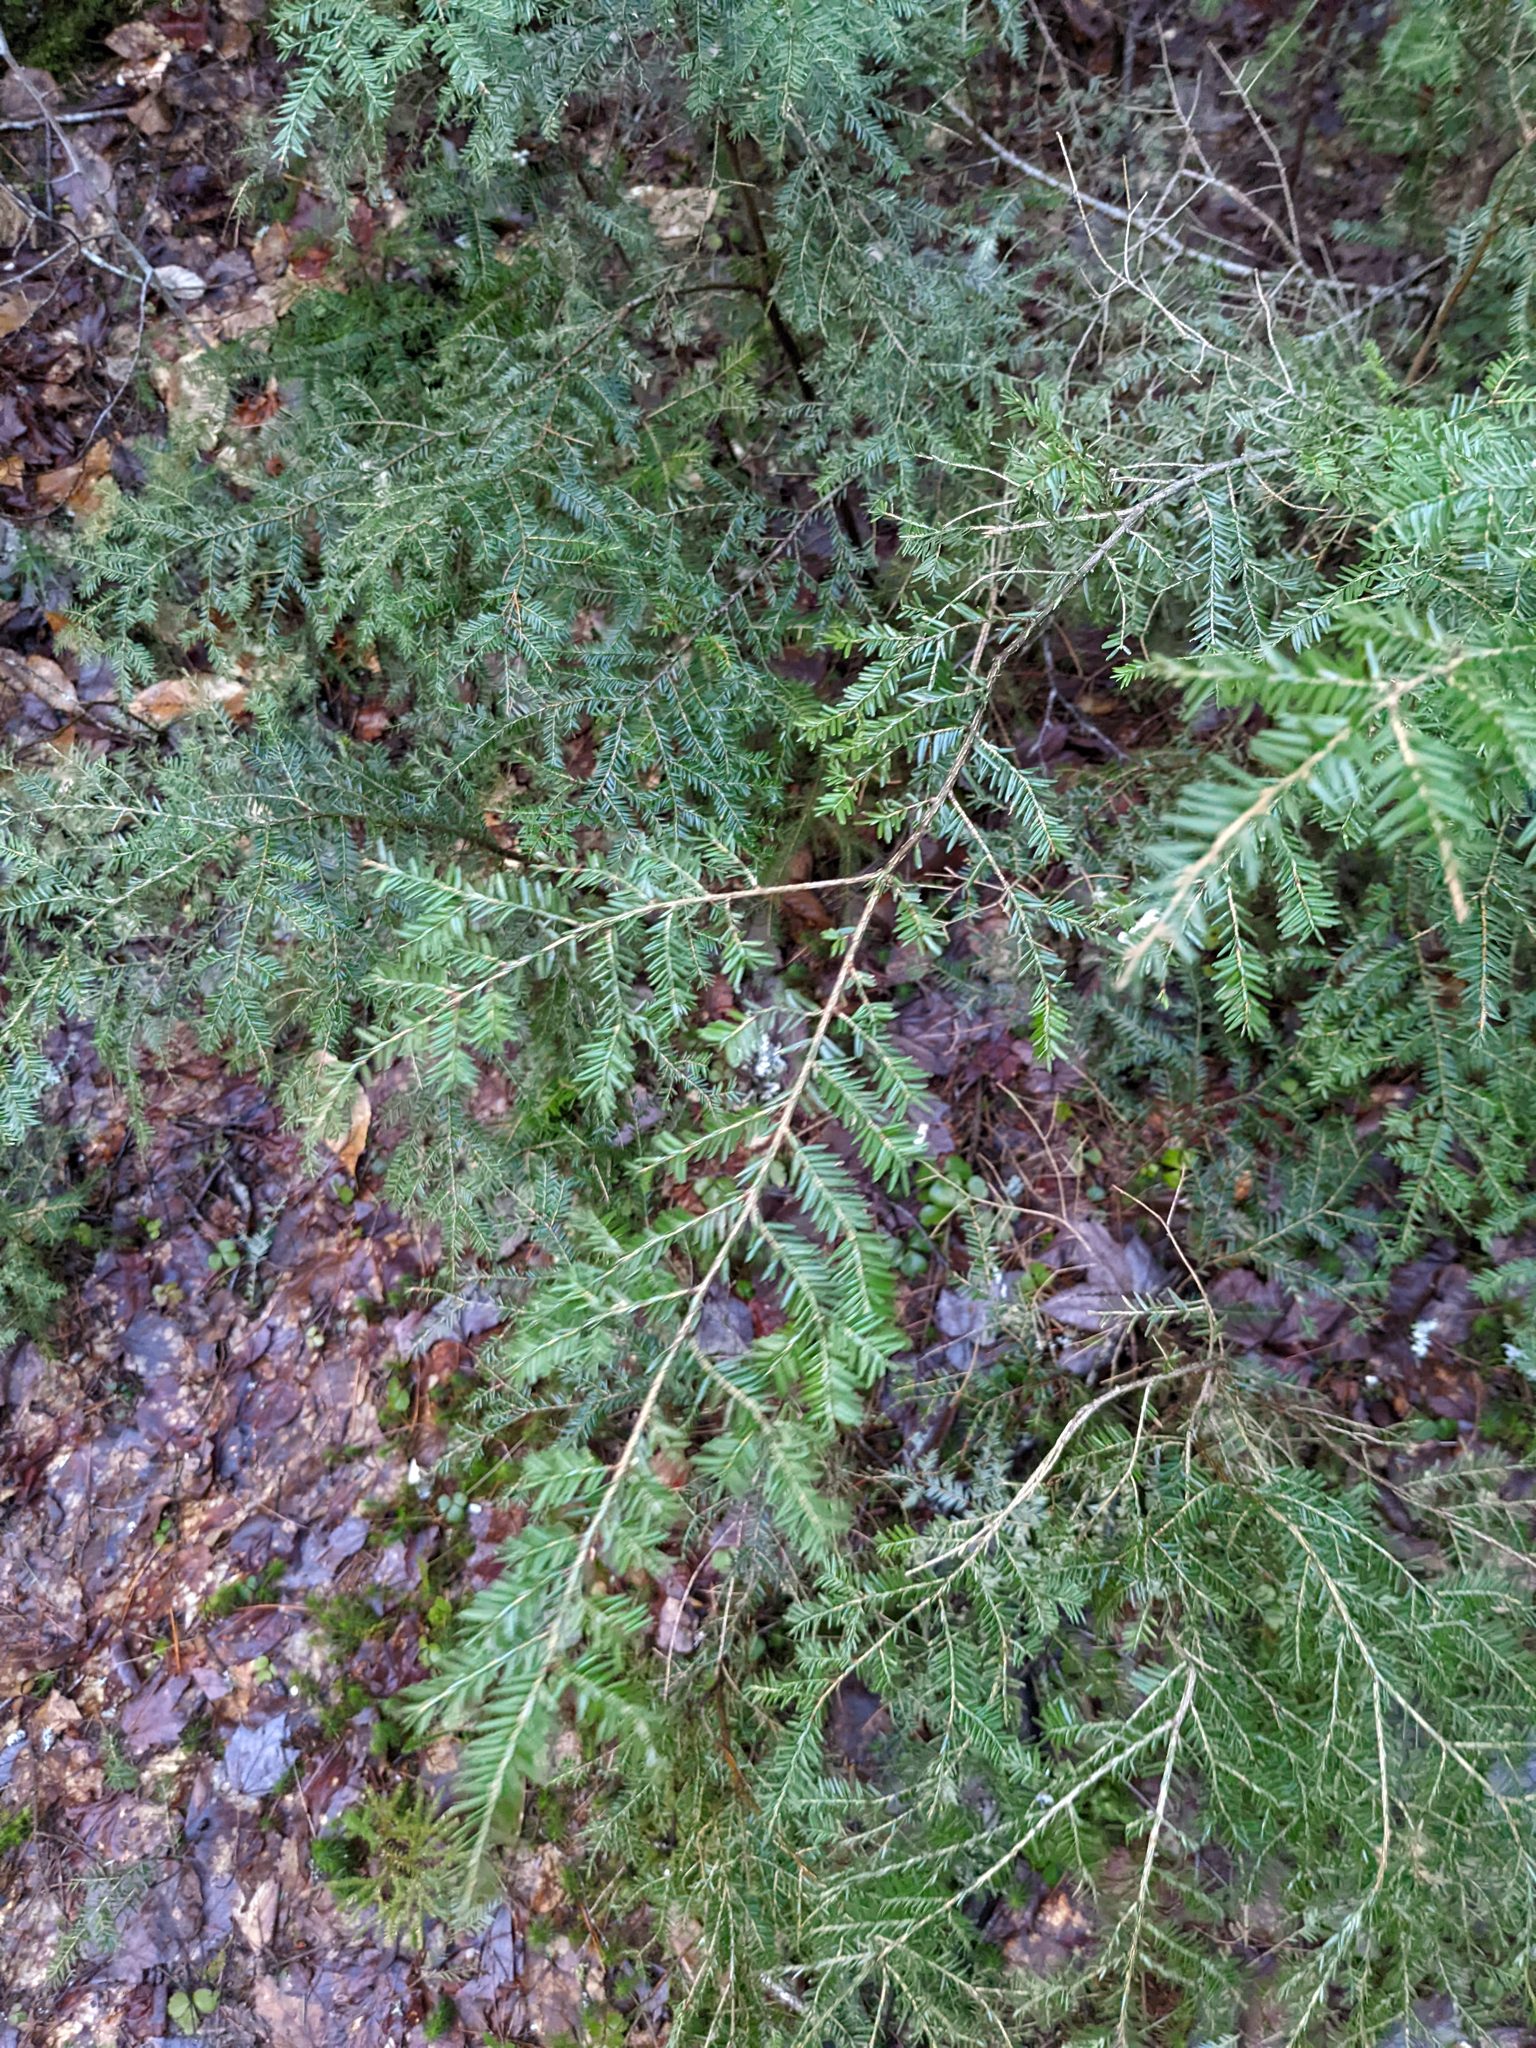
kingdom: Plantae
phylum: Tracheophyta
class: Pinopsida
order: Pinales
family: Pinaceae
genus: Tsuga
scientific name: Tsuga canadensis
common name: Eastern hemlock
